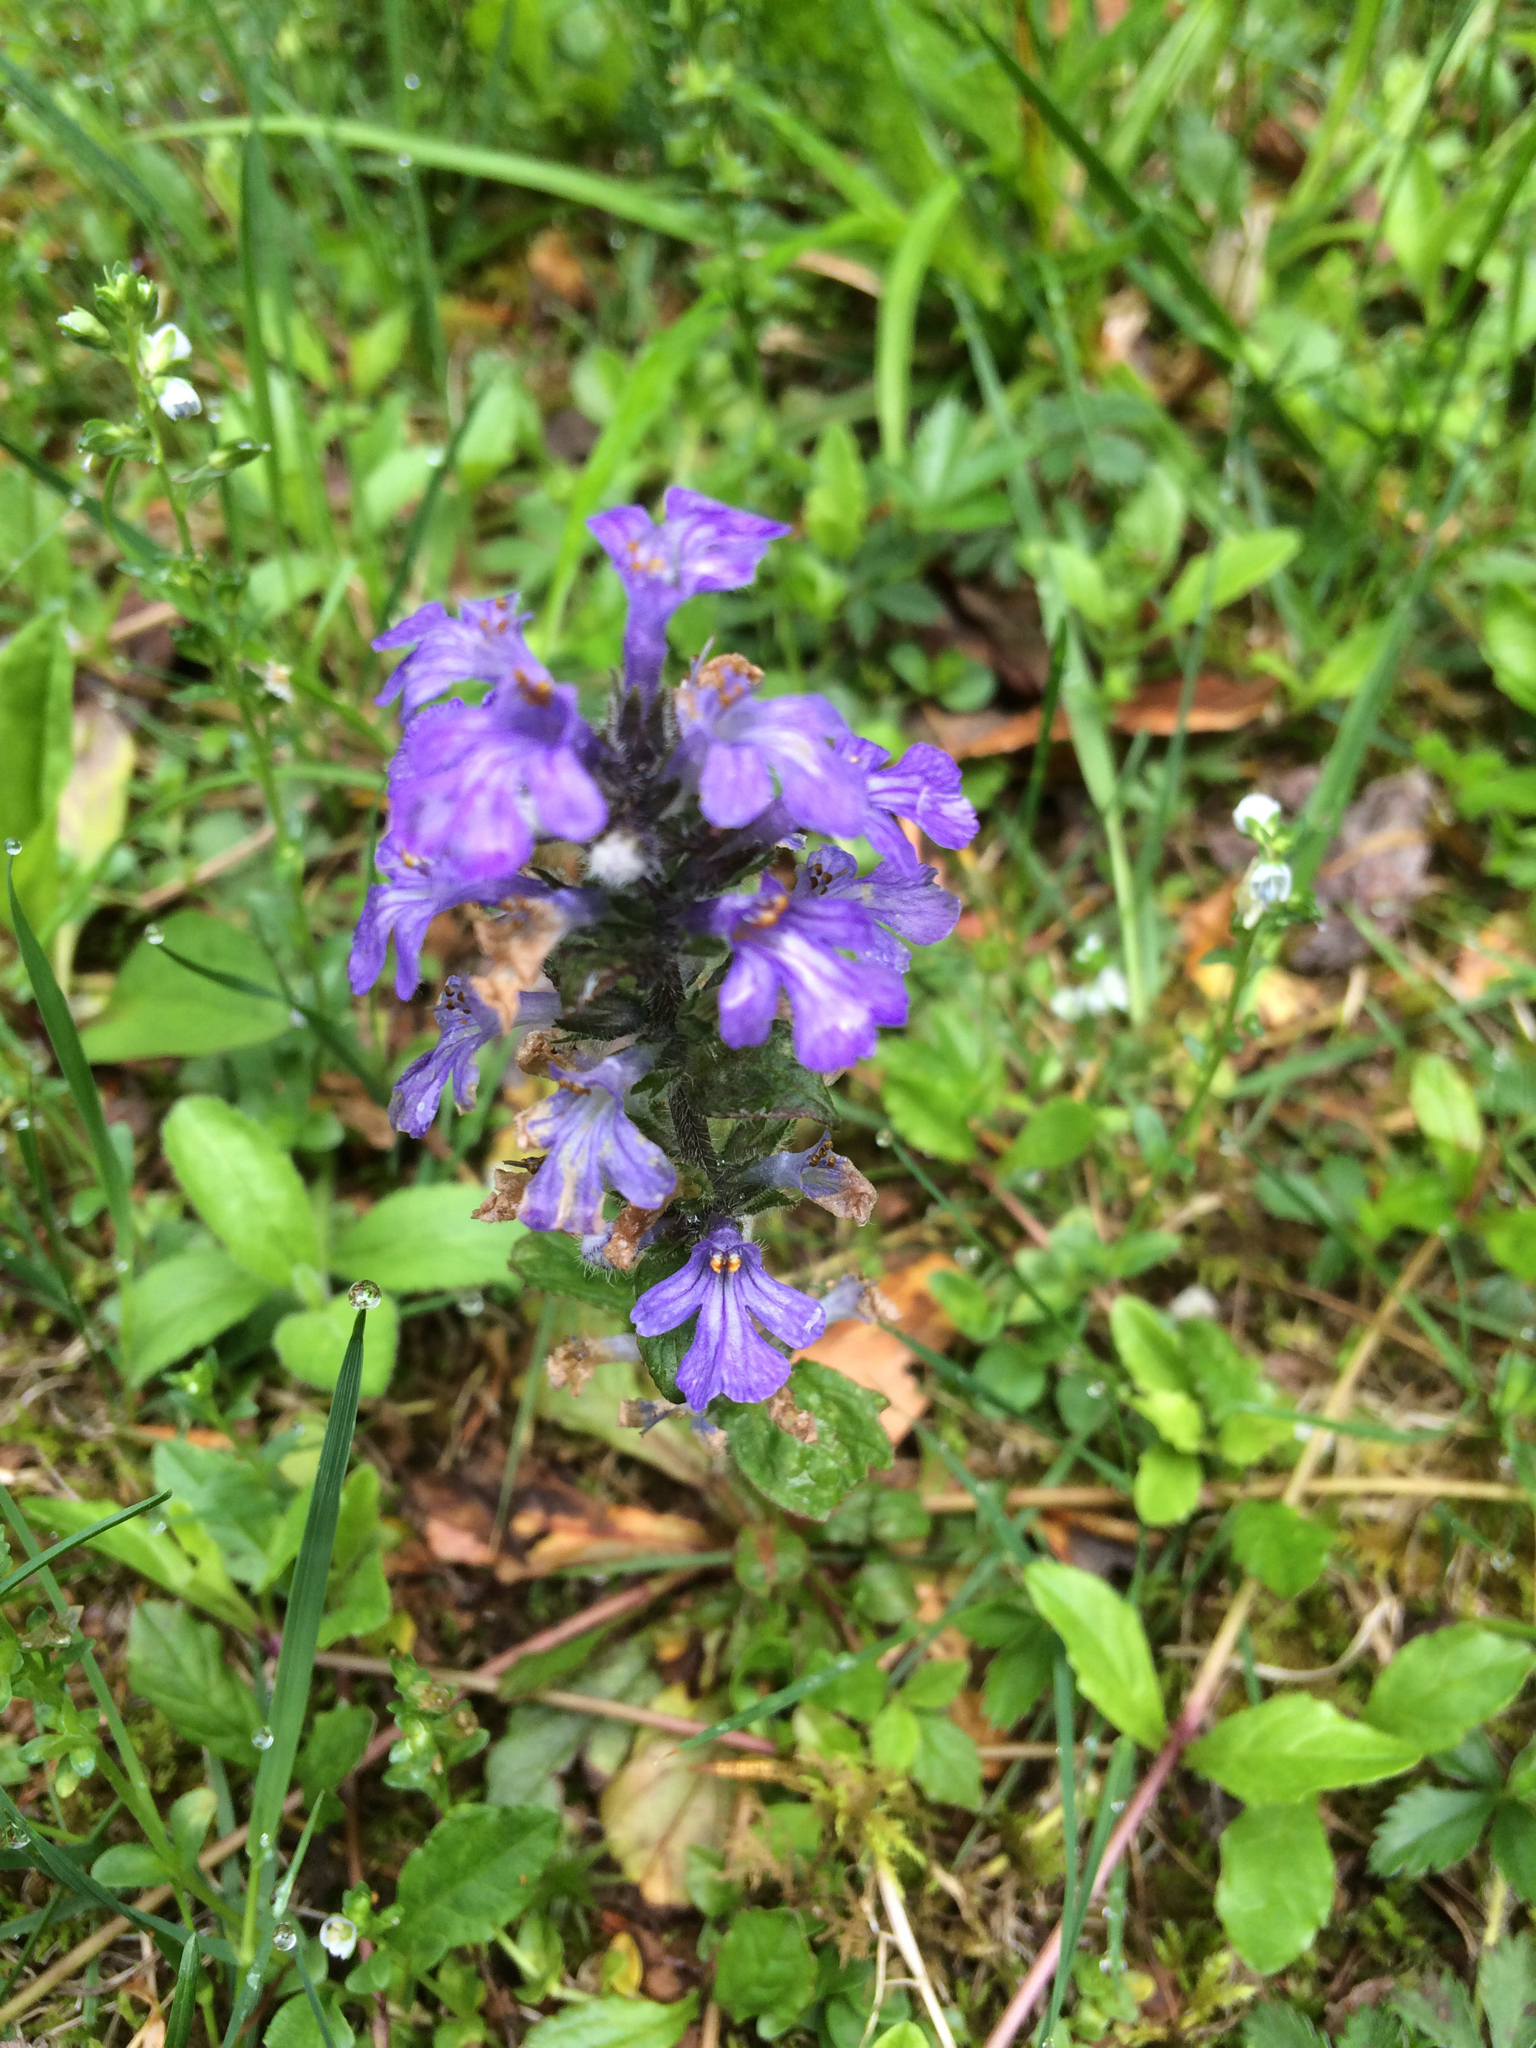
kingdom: Plantae
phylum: Tracheophyta
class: Magnoliopsida
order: Lamiales
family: Lamiaceae
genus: Ajuga
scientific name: Ajuga reptans
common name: Bugle
